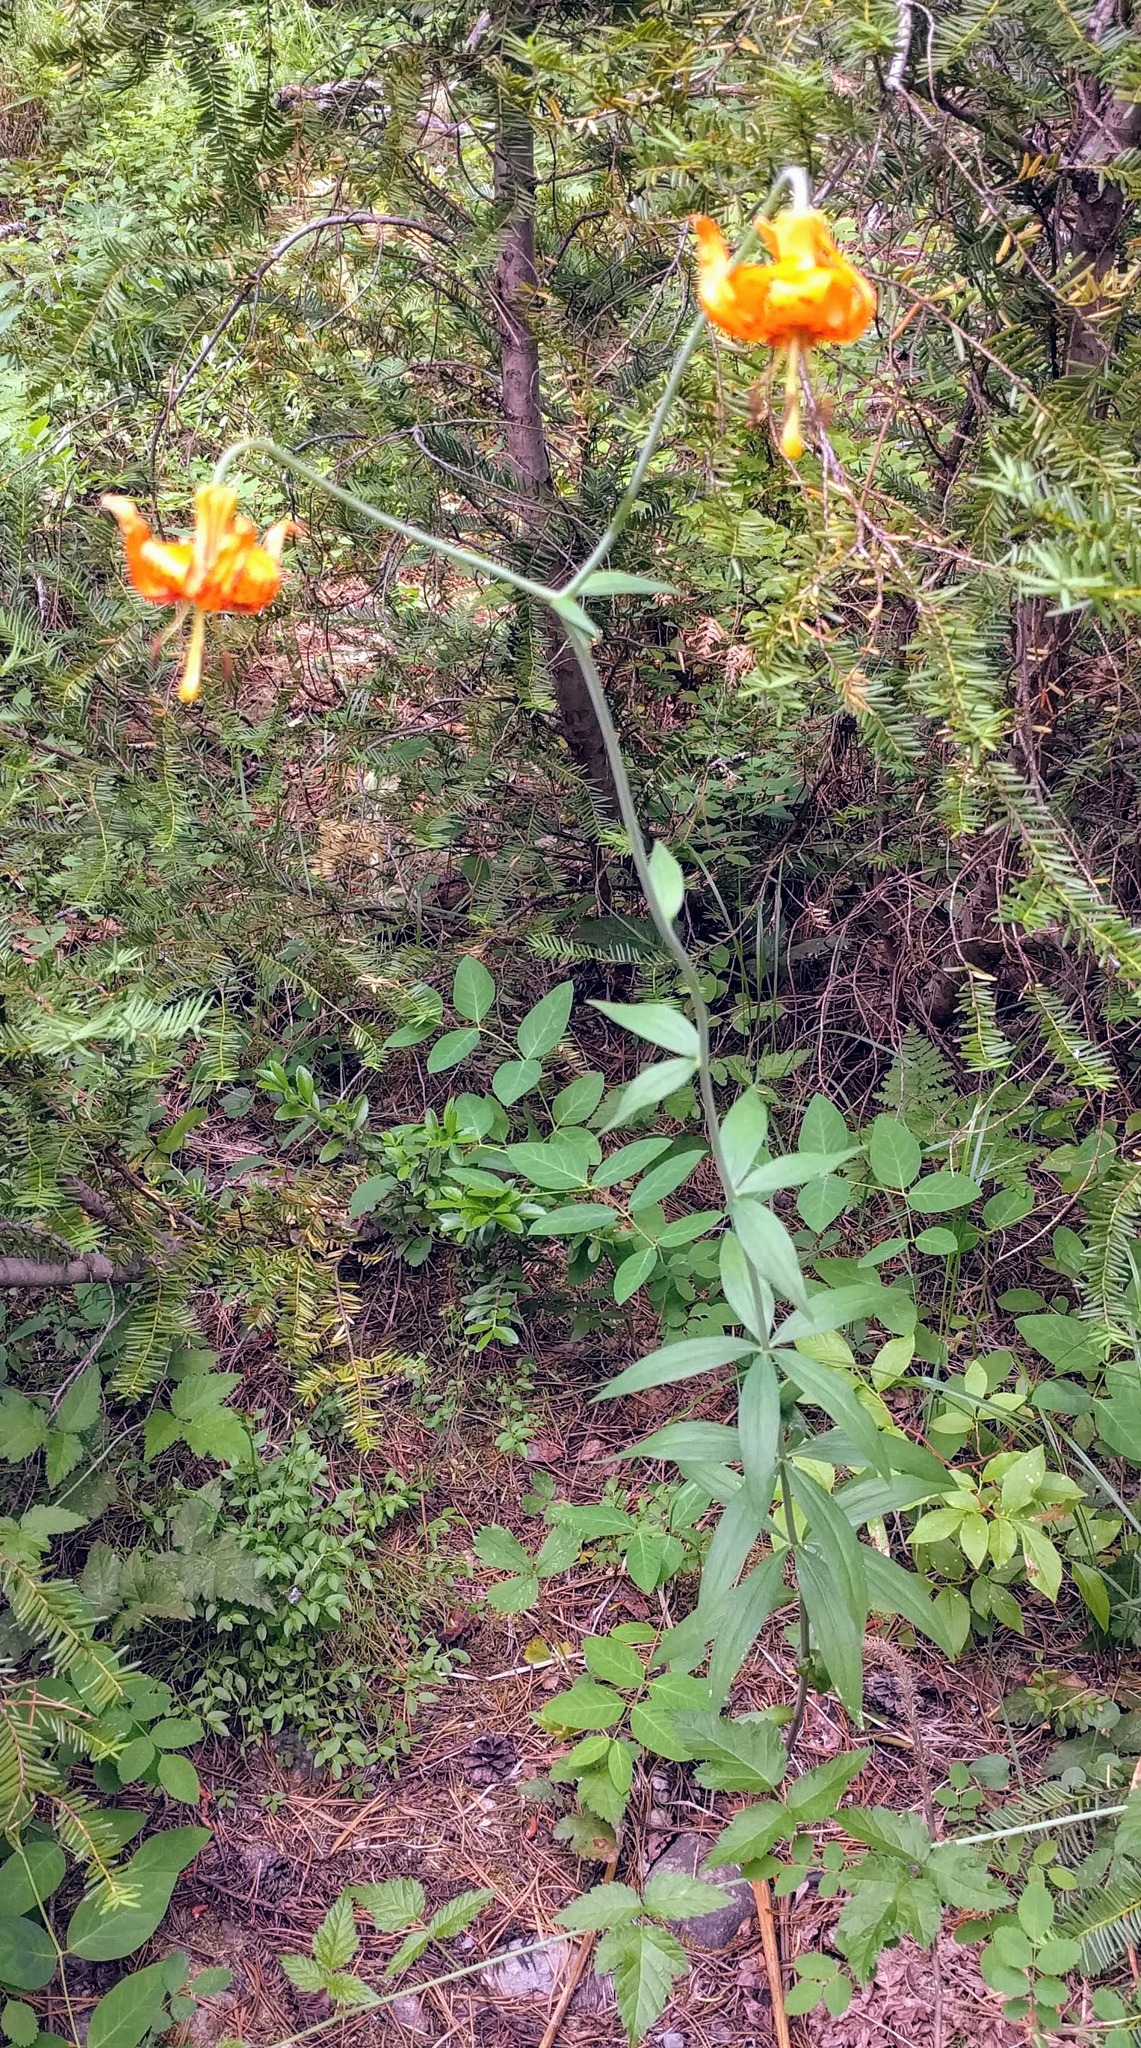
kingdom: Plantae
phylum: Tracheophyta
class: Liliopsida
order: Liliales
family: Liliaceae
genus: Lilium
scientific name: Lilium columbianum
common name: Columbia lily
